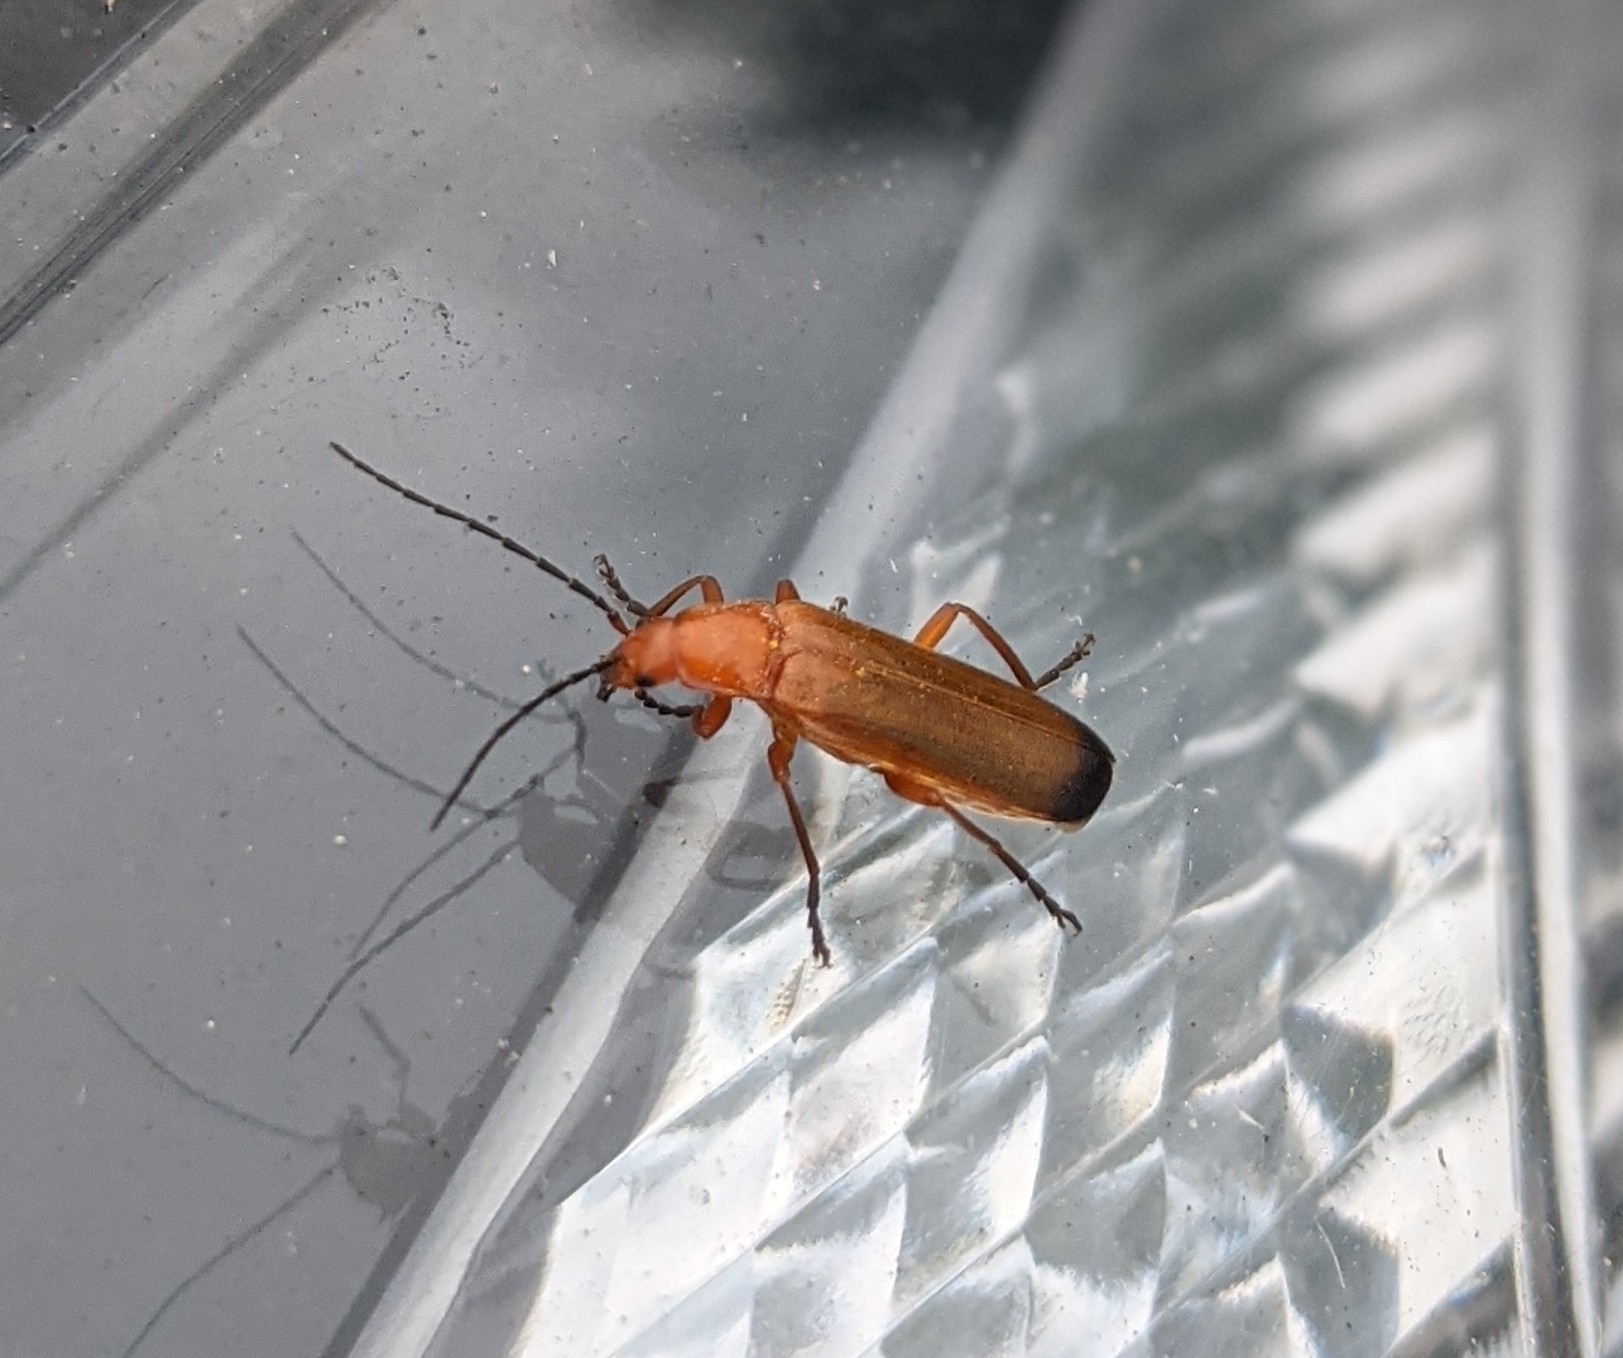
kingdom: Animalia
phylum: Arthropoda
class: Insecta
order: Coleoptera
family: Cantharidae
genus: Rhagonycha
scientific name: Rhagonycha fulva
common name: Common red soldier beetle
